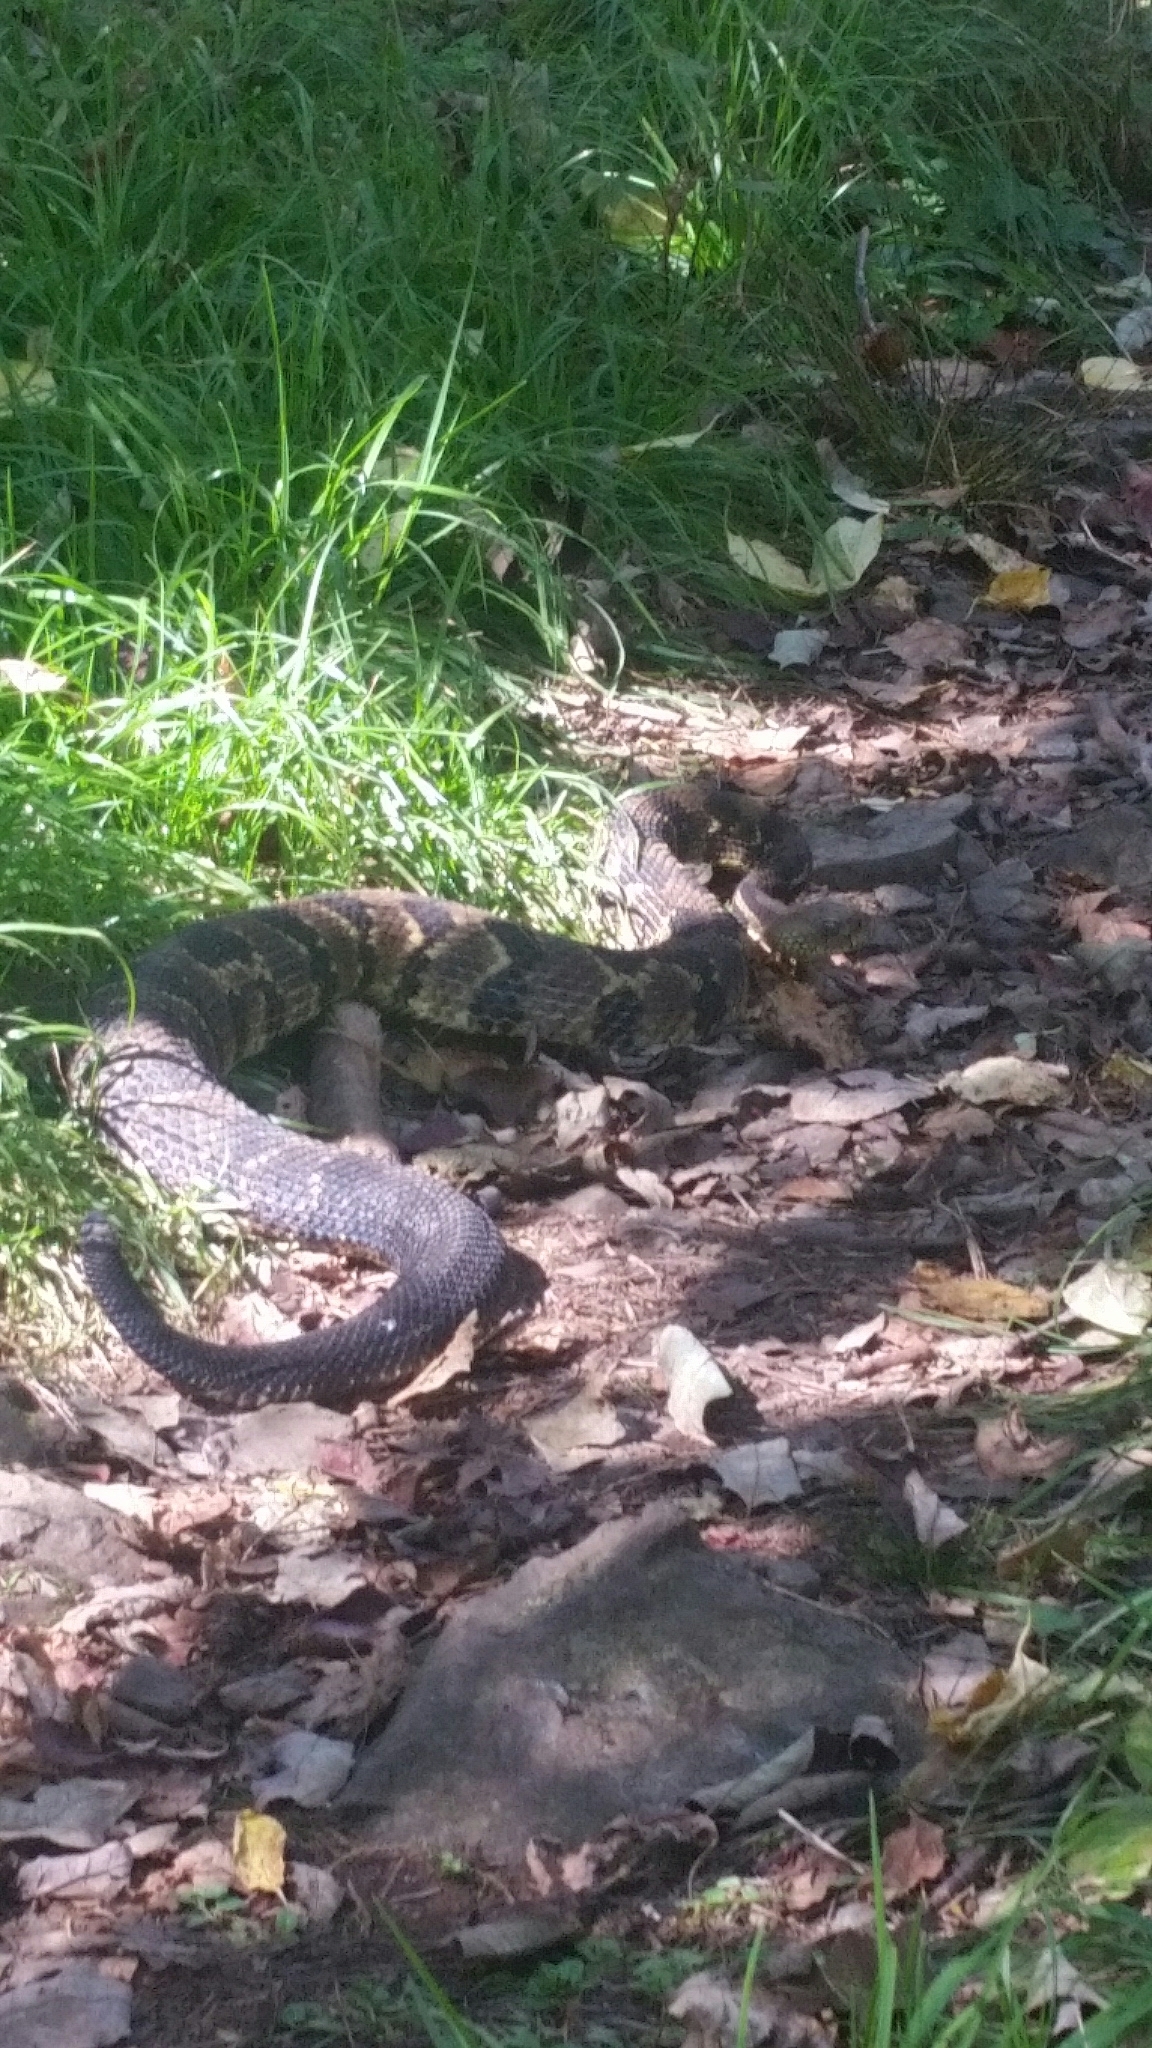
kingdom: Animalia
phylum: Chordata
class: Squamata
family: Viperidae
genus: Crotalus
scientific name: Crotalus horridus
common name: Timber rattlesnake
